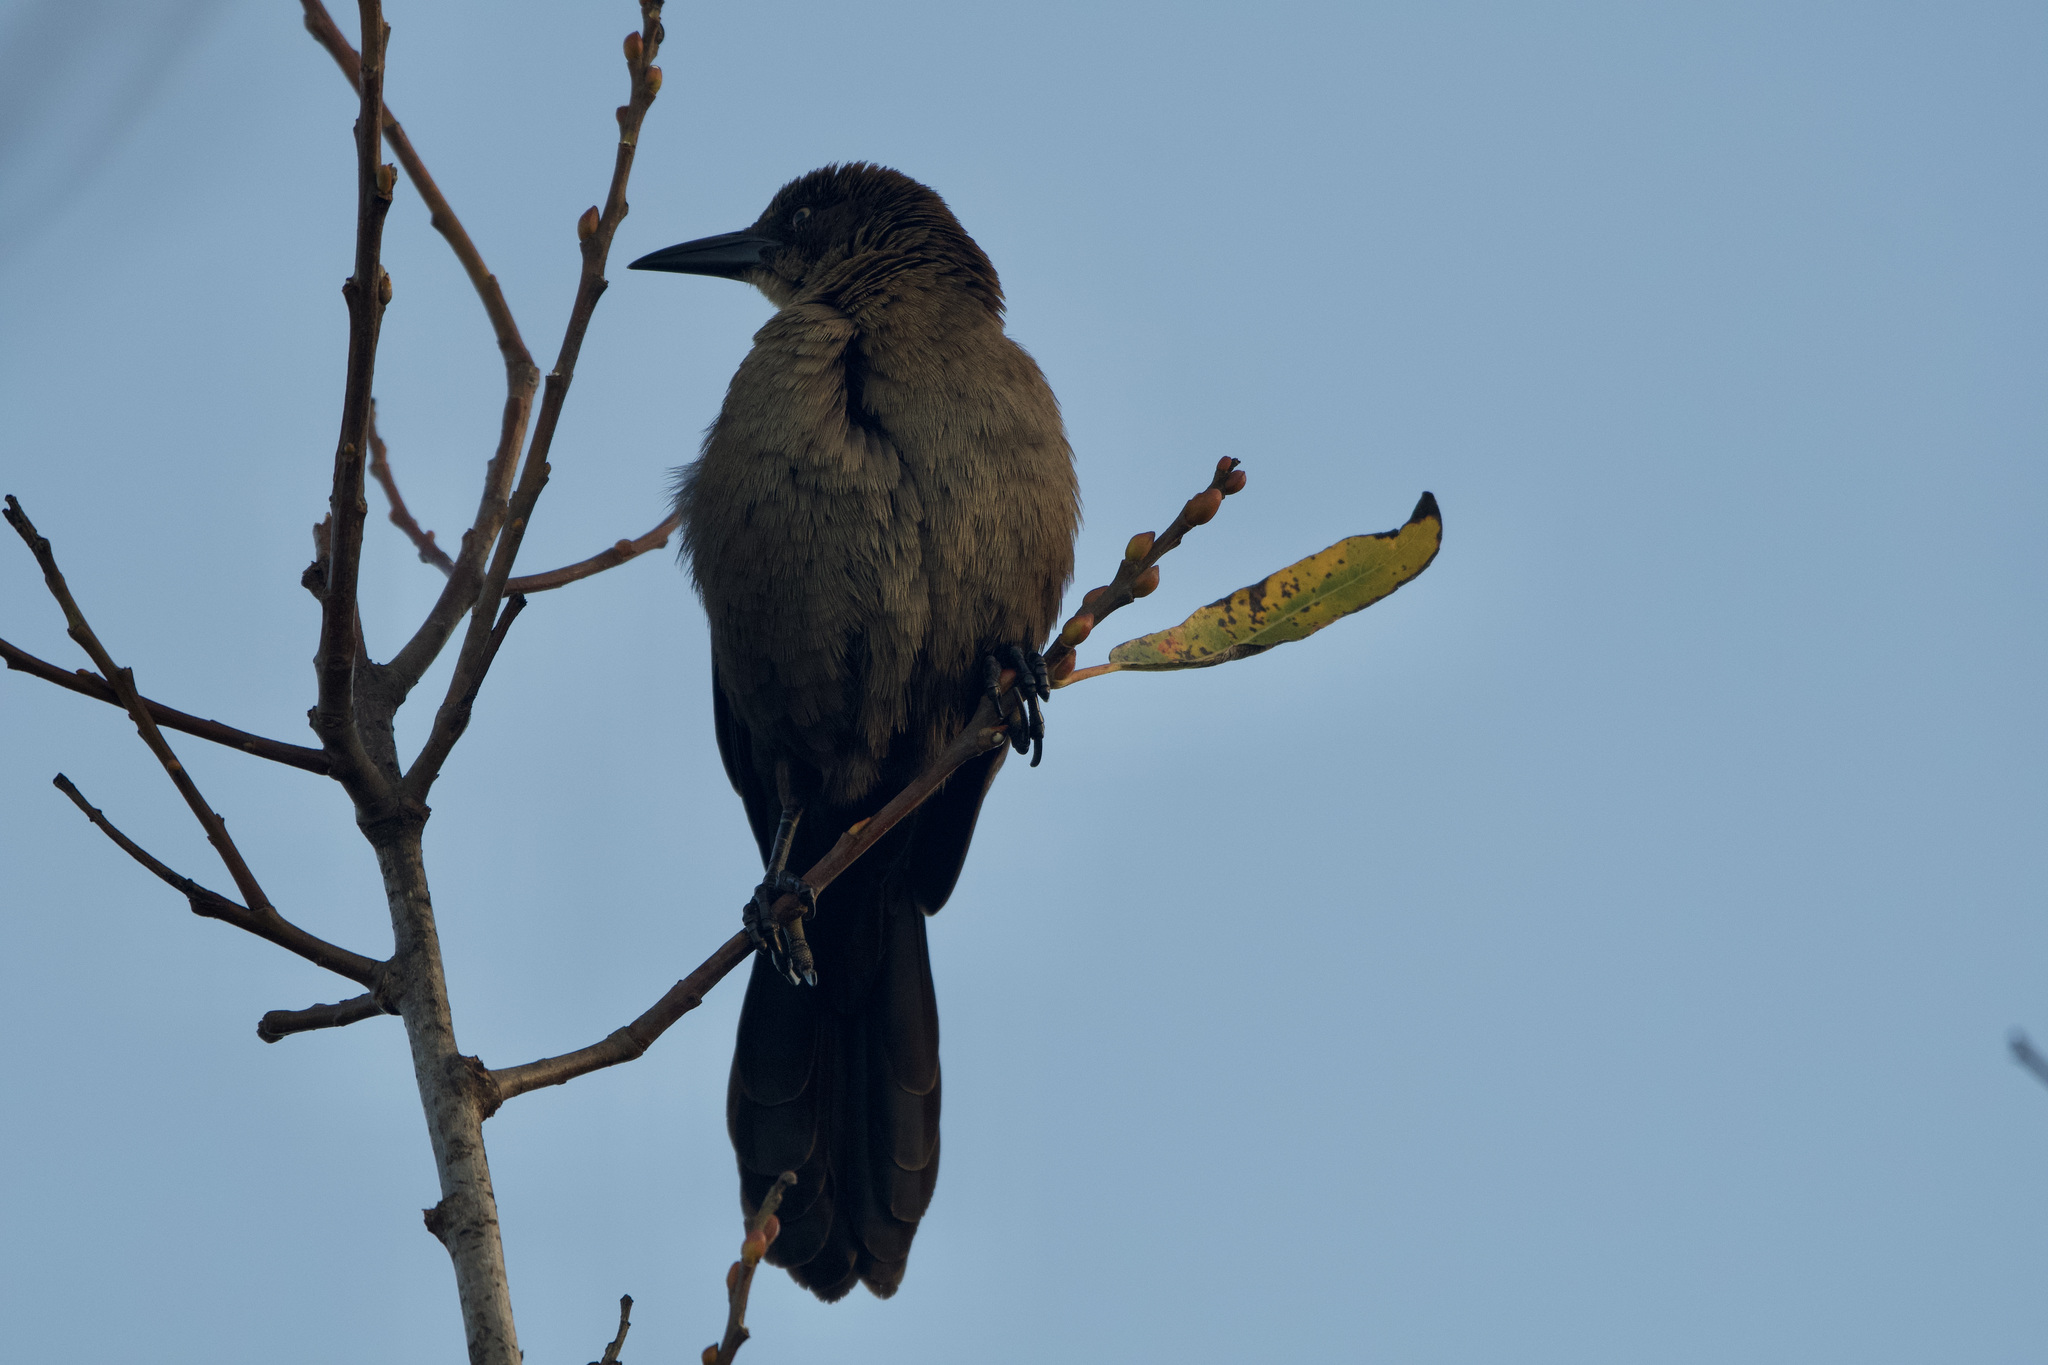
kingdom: Animalia
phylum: Chordata
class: Aves
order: Passeriformes
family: Icteridae
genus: Quiscalus
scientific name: Quiscalus mexicanus
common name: Great-tailed grackle
